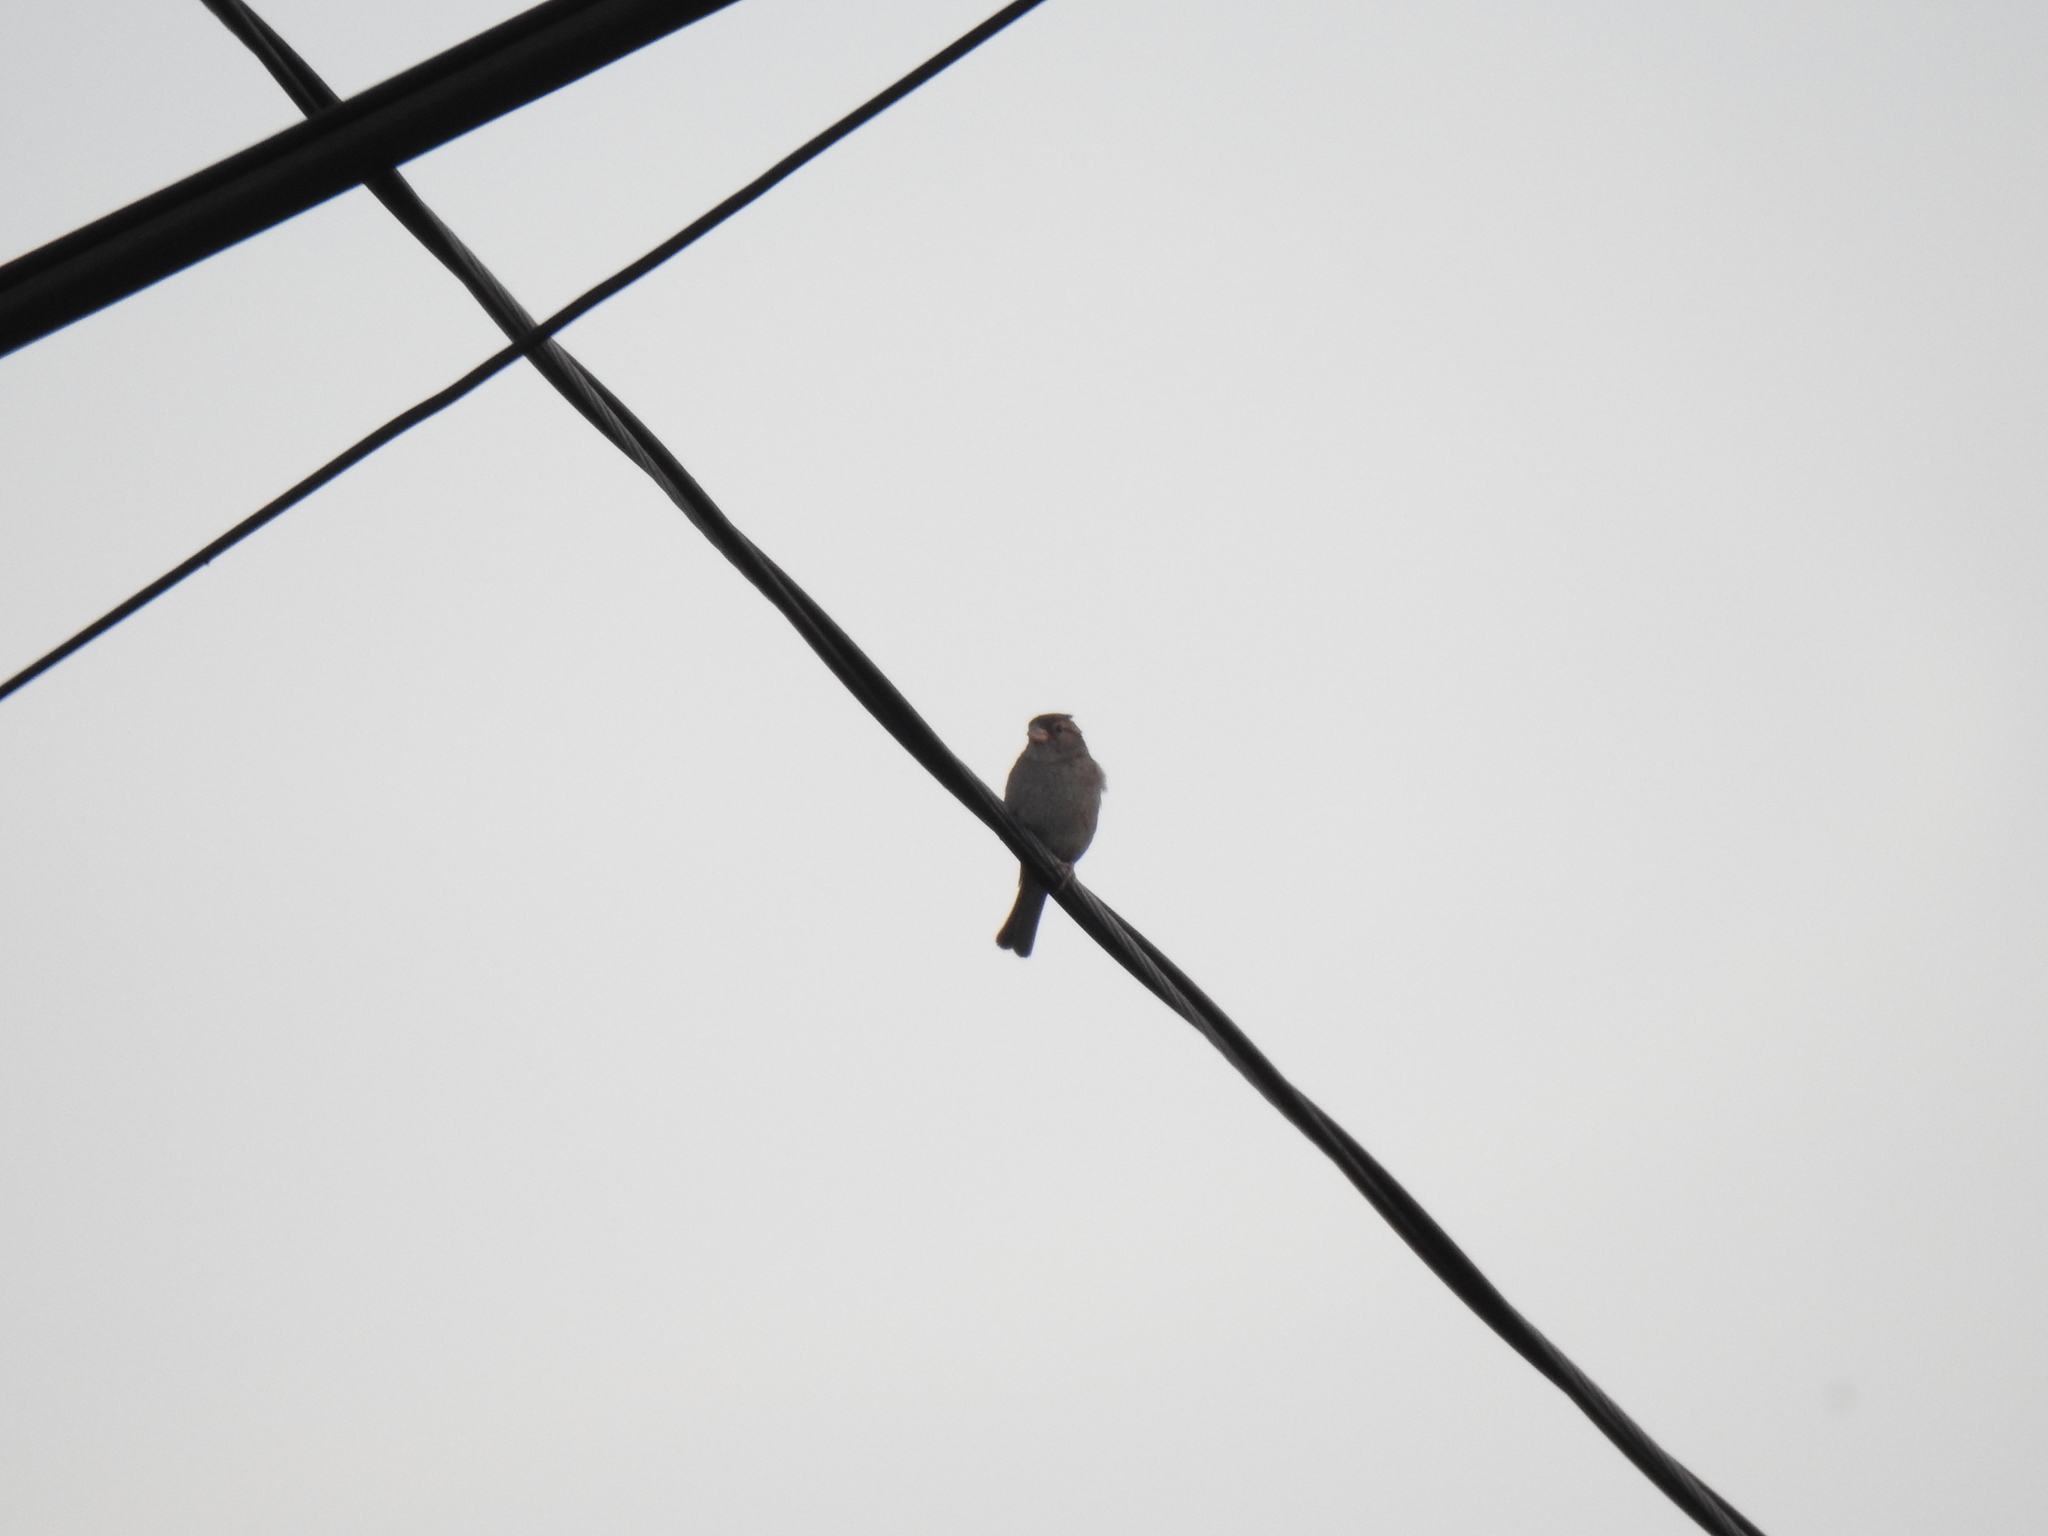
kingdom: Animalia
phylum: Chordata
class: Aves
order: Passeriformes
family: Passeridae
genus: Passer
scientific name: Passer domesticus
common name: House sparrow
